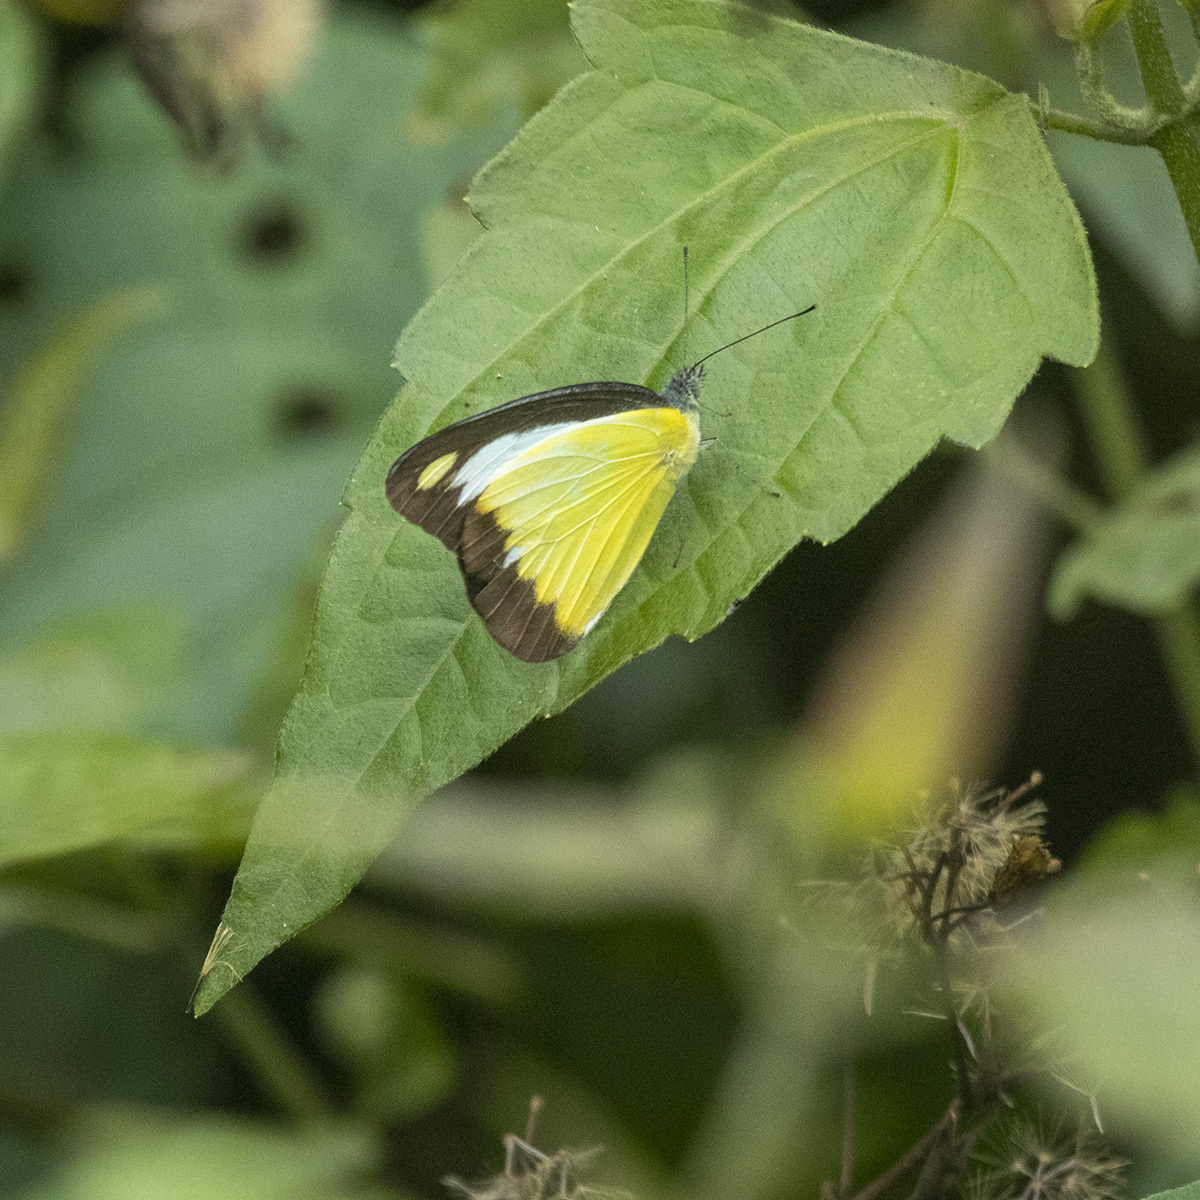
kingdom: Animalia
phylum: Arthropoda
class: Insecta
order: Lepidoptera
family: Pieridae
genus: Appias
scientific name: Appias lyncida
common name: Chocolate albatross
